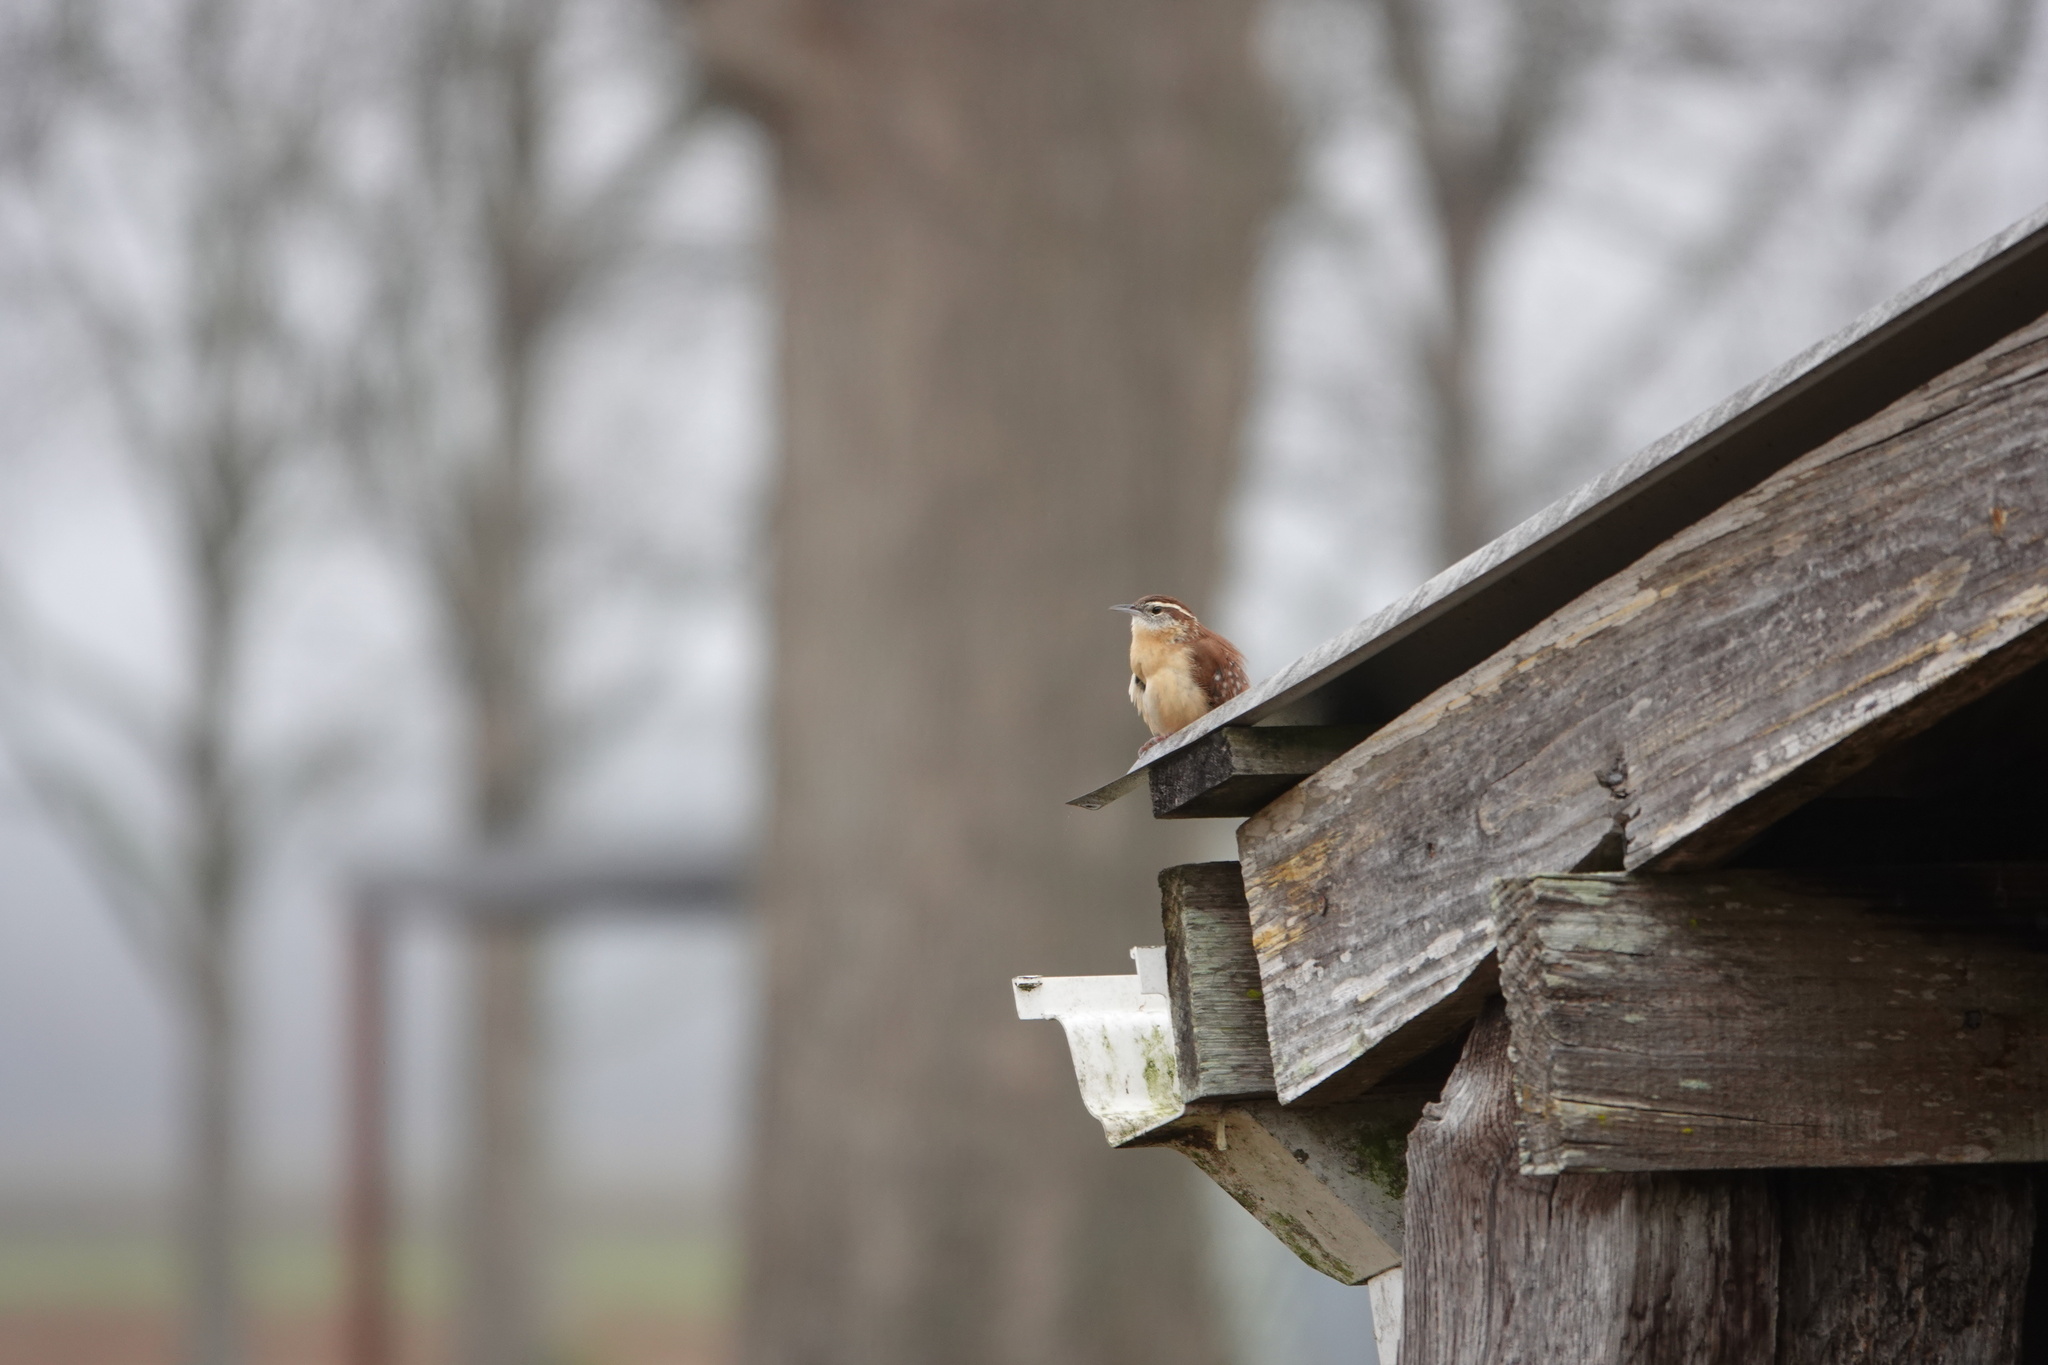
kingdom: Animalia
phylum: Chordata
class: Aves
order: Passeriformes
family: Troglodytidae
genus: Thryothorus
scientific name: Thryothorus ludovicianus
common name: Carolina wren
